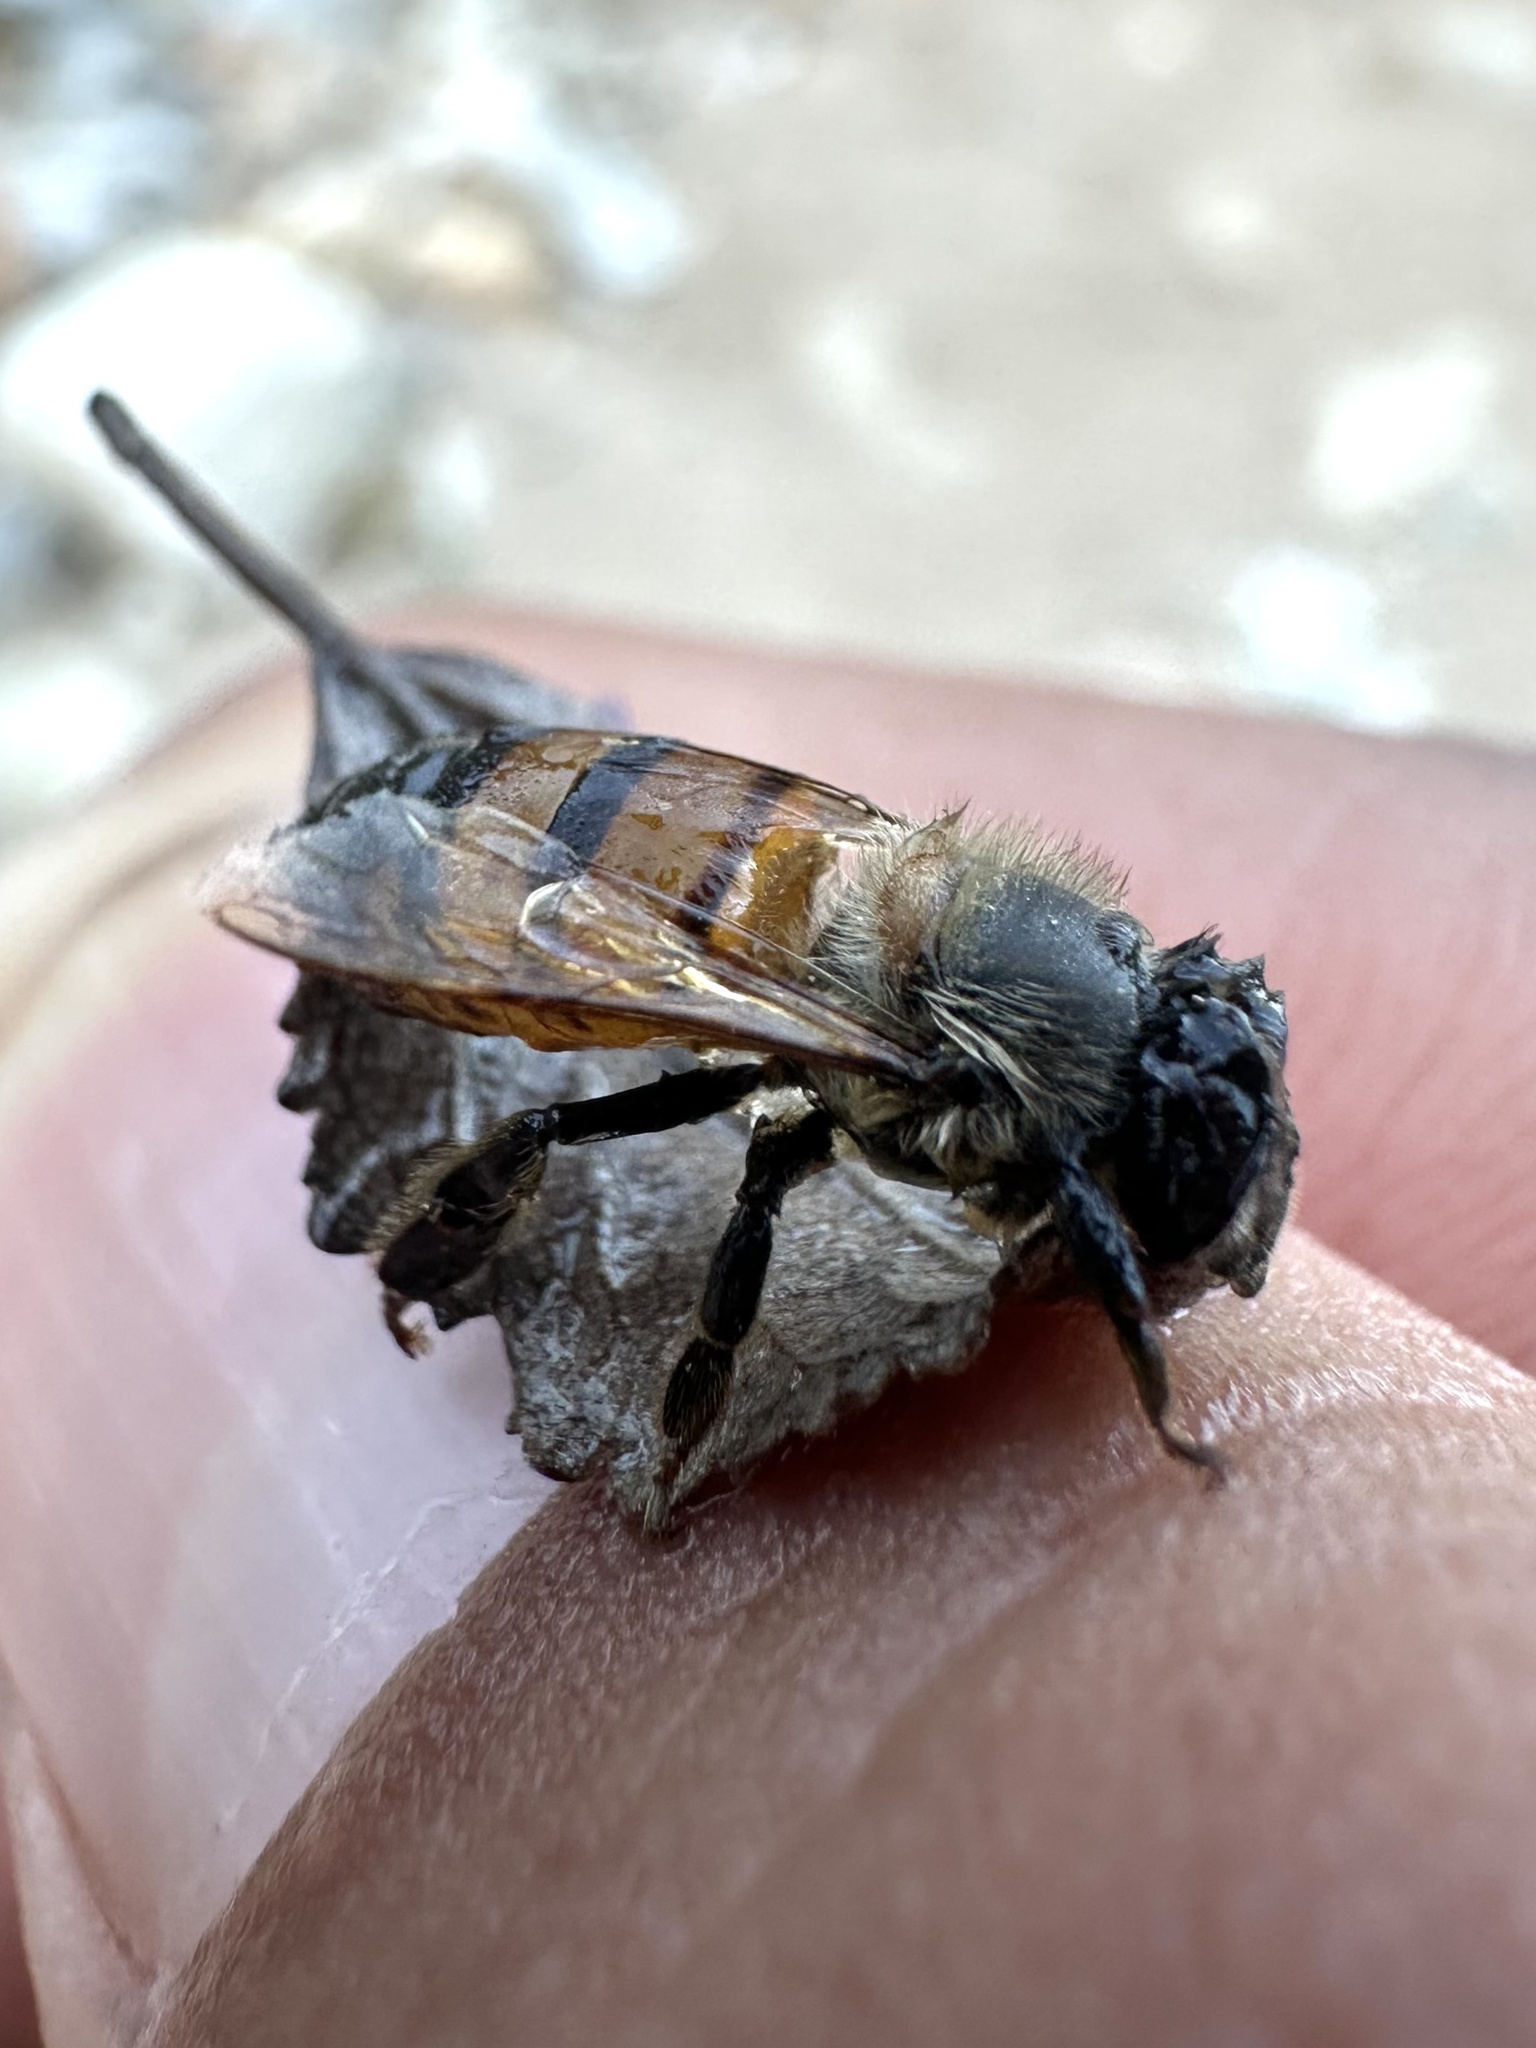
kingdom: Animalia
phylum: Arthropoda
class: Insecta
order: Hymenoptera
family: Apidae
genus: Apis
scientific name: Apis mellifera
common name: Honey bee
